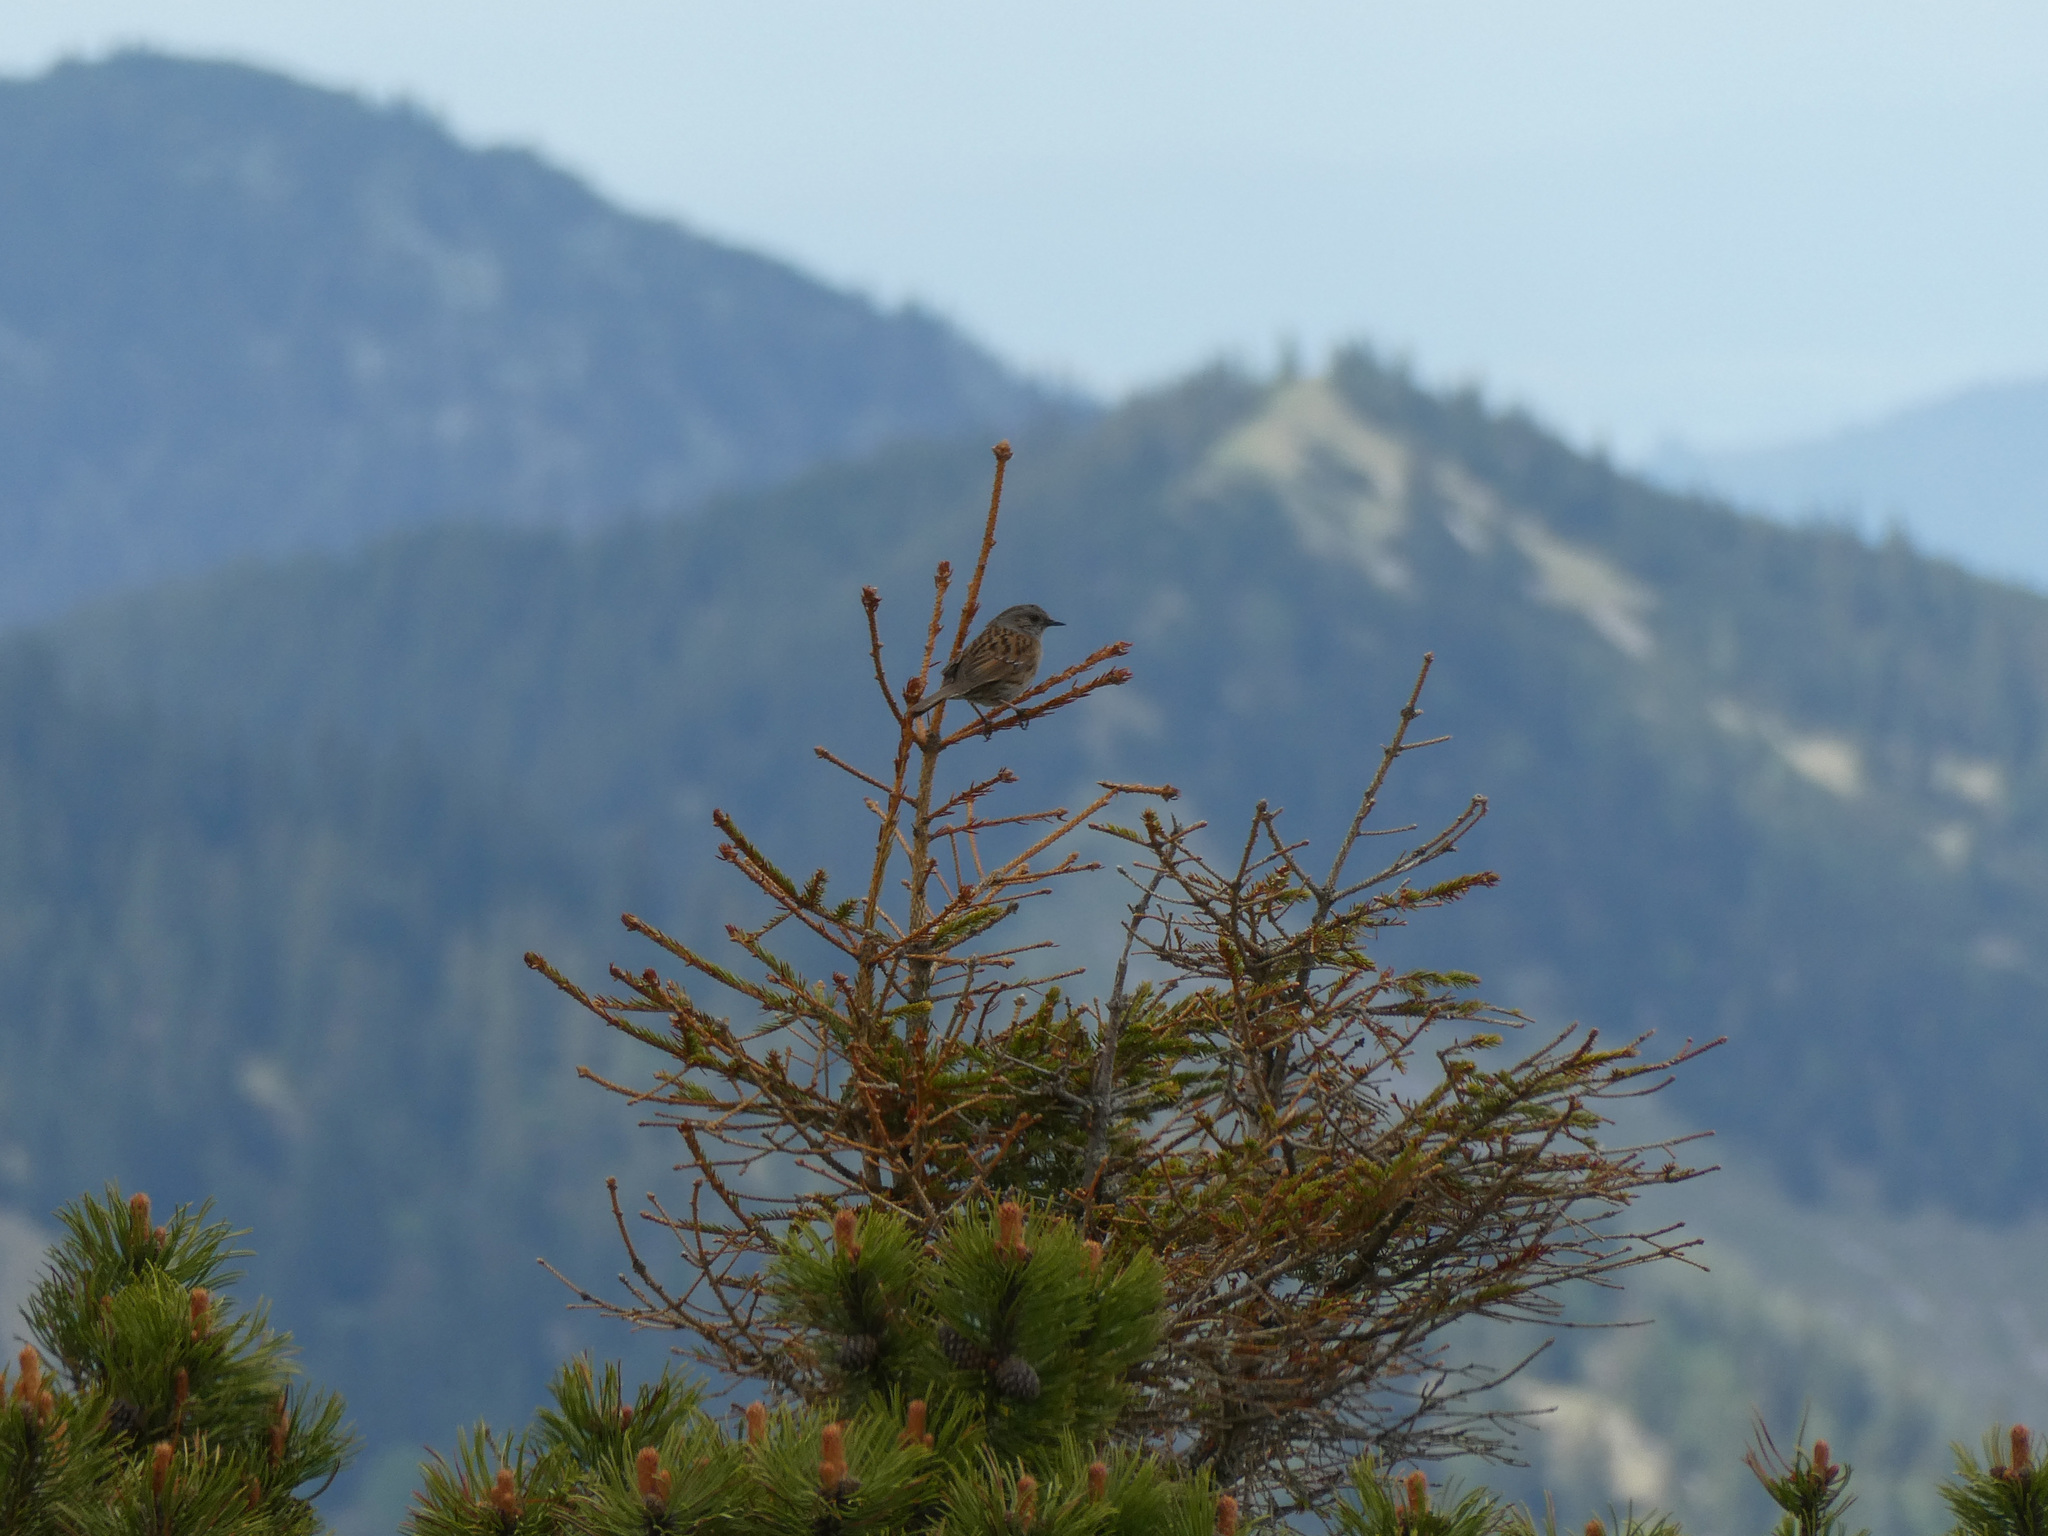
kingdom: Animalia
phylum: Chordata
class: Aves
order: Passeriformes
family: Prunellidae
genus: Prunella
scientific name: Prunella modularis
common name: Dunnock
